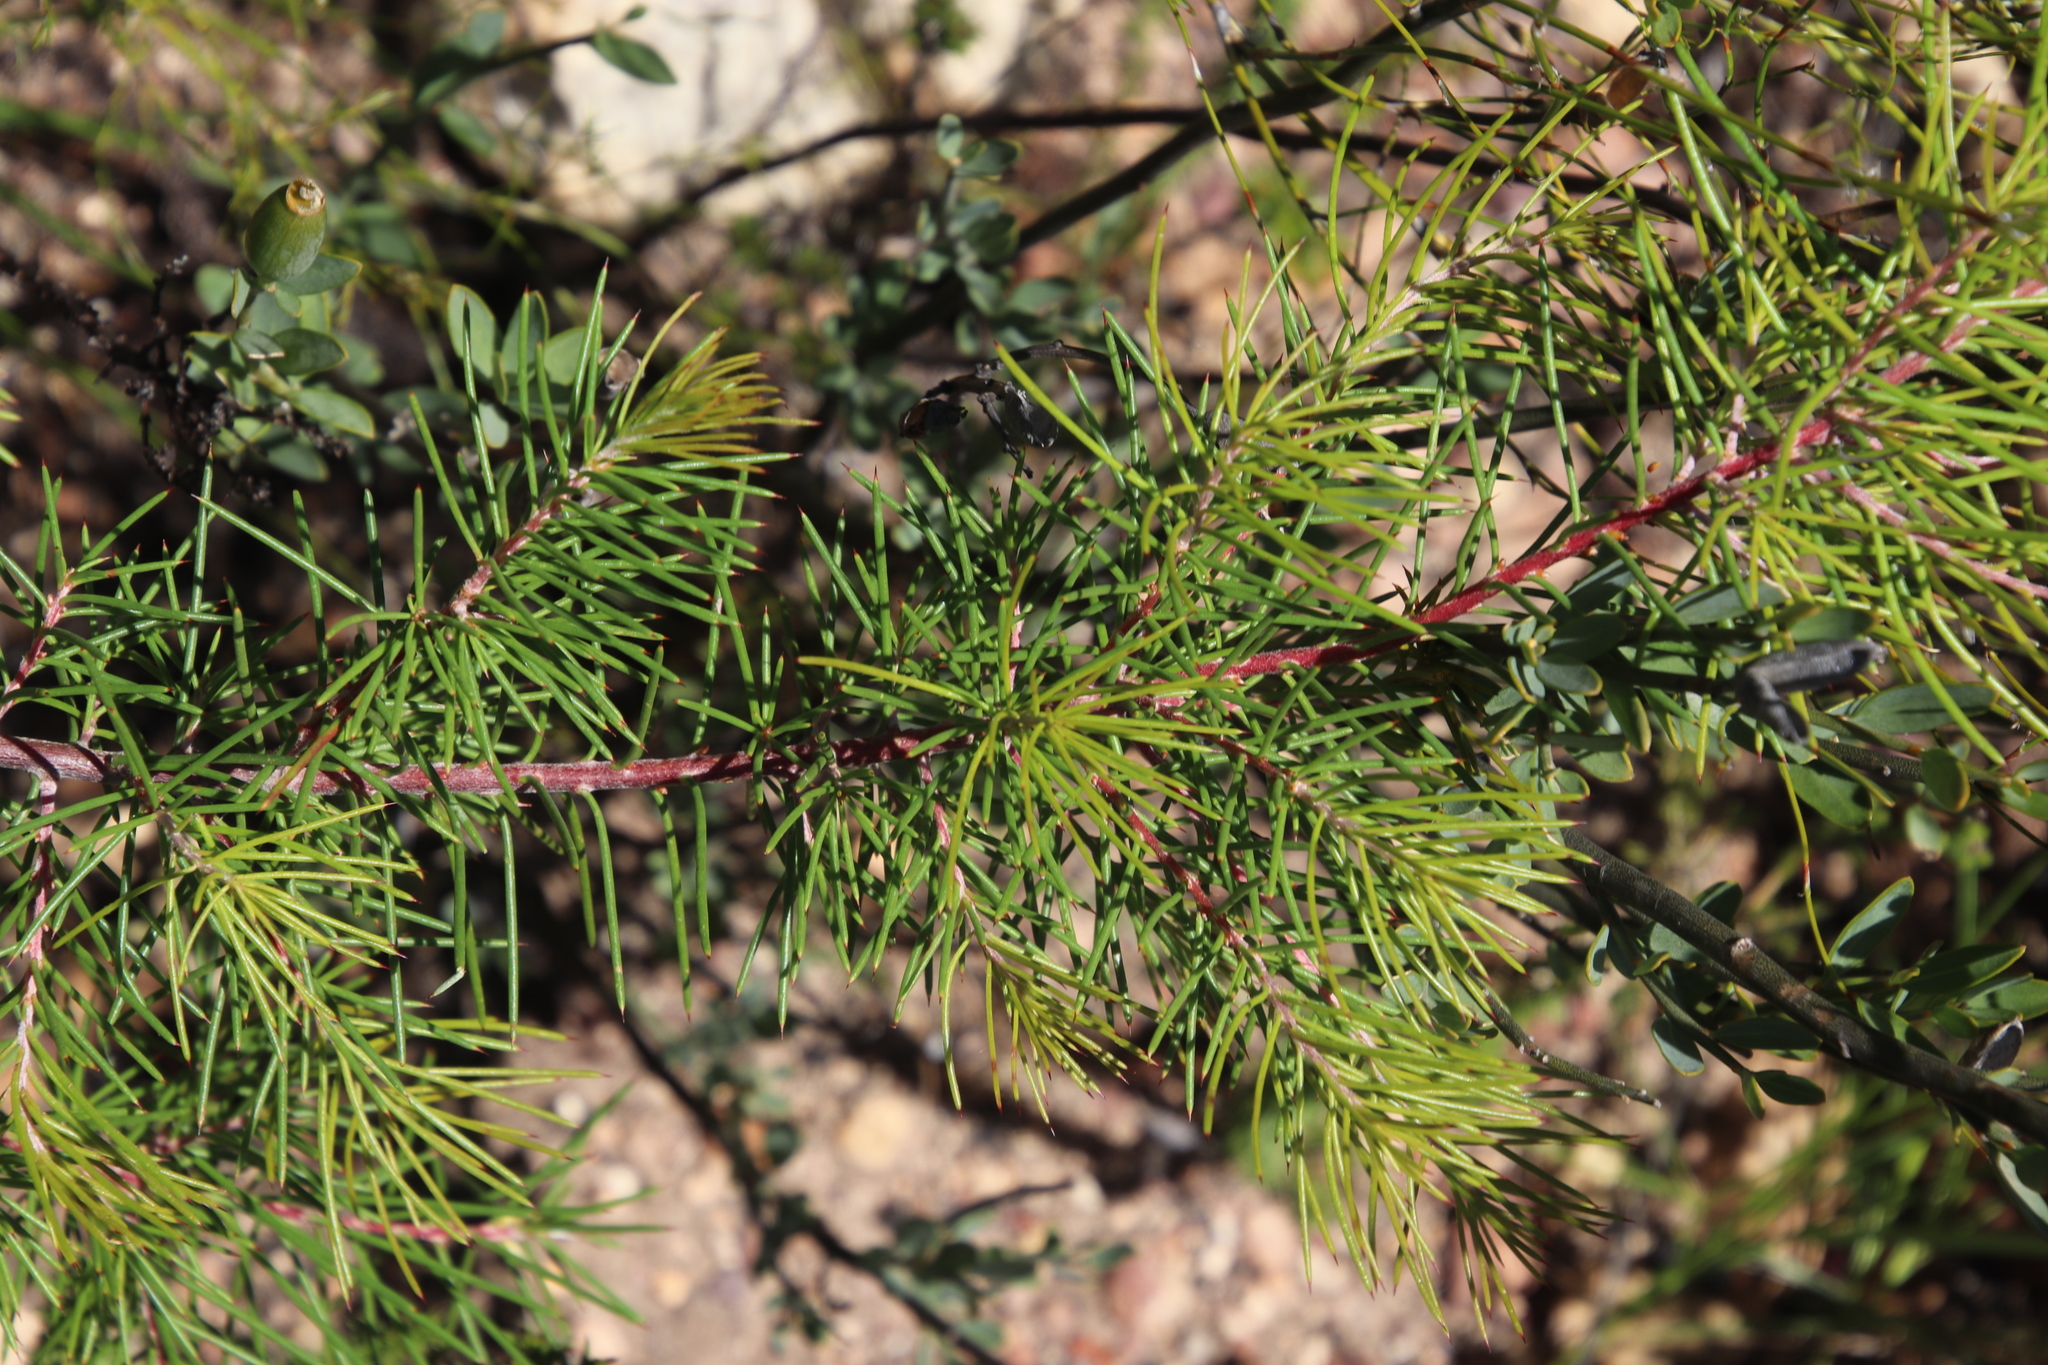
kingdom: Plantae
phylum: Tracheophyta
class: Magnoliopsida
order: Proteales
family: Proteaceae
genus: Hakea
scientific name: Hakea sericea
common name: Needle bush
